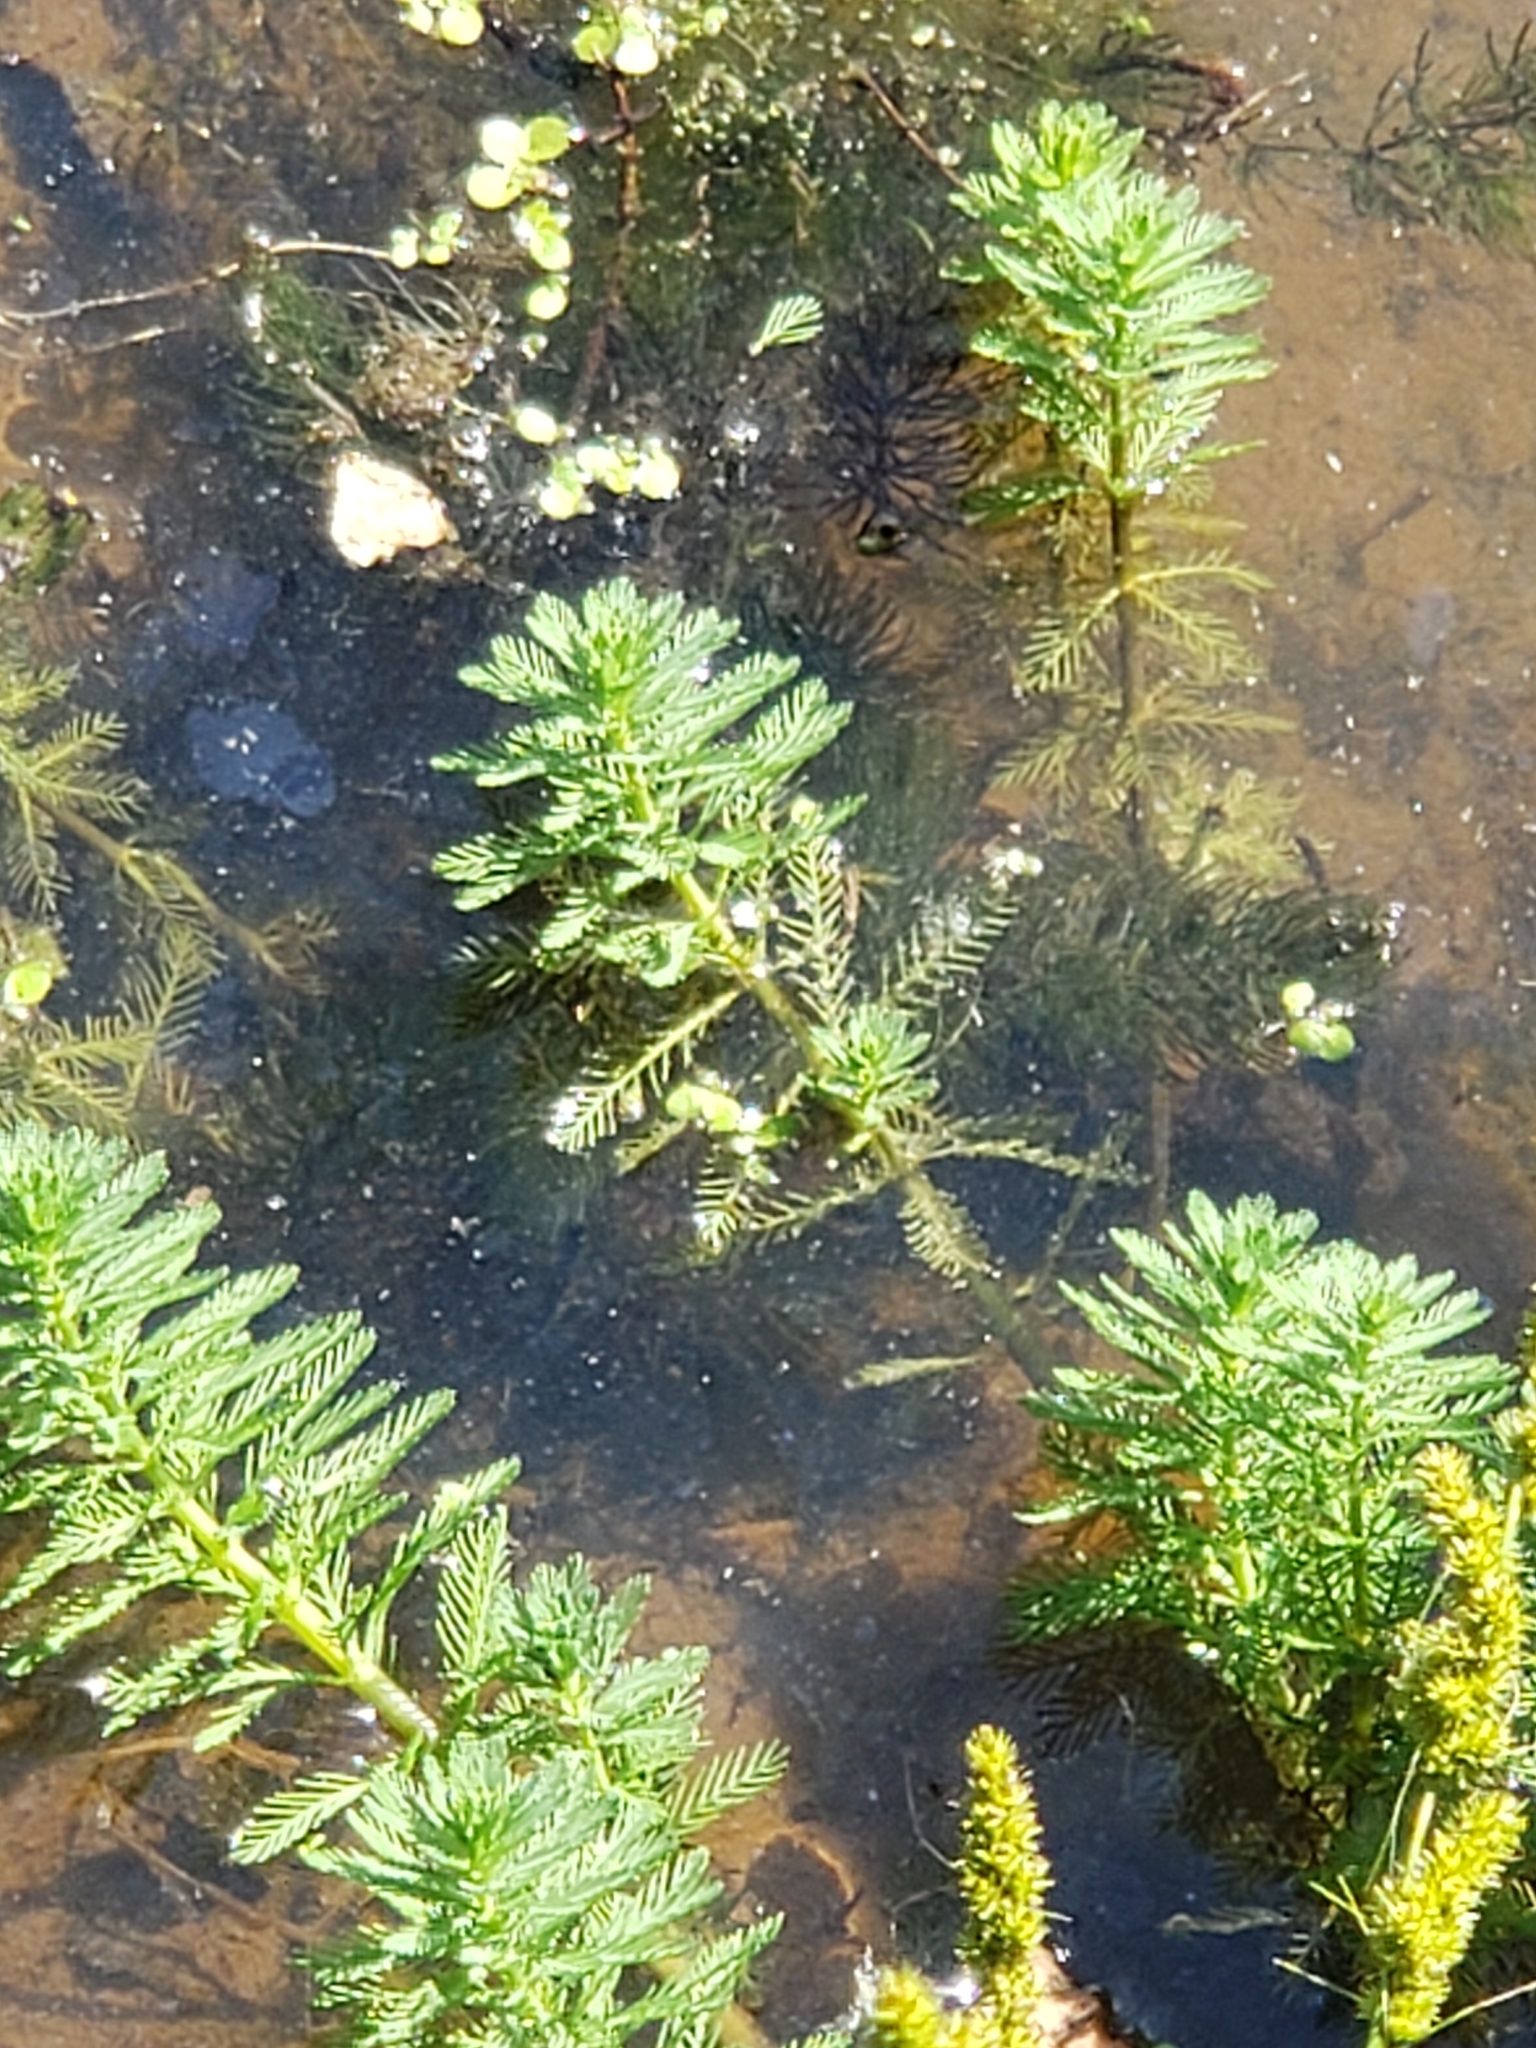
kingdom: Plantae
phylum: Tracheophyta
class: Magnoliopsida
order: Saxifragales
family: Haloragaceae
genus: Myriophyllum
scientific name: Myriophyllum aquaticum
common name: Parrot's feather
